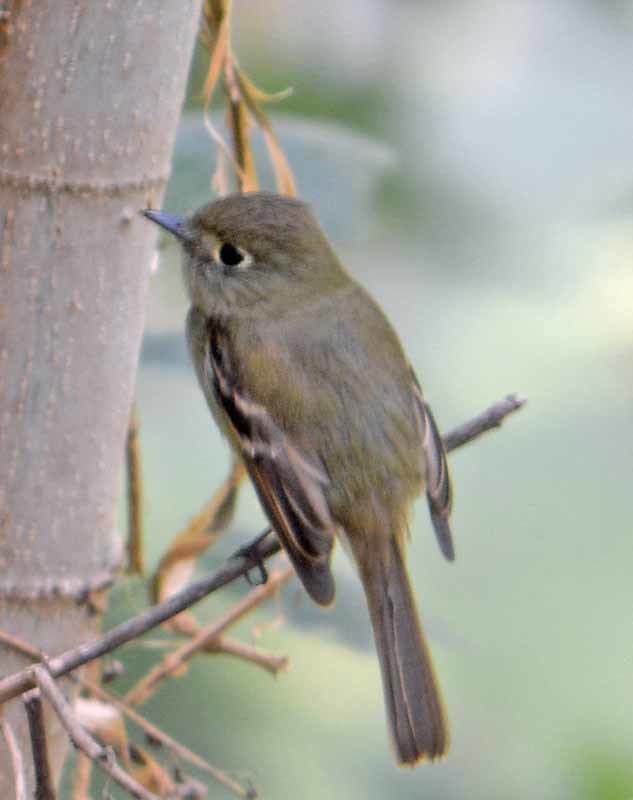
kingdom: Animalia
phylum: Chordata
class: Aves
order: Passeriformes
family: Regulidae
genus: Regulus
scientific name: Regulus calendula
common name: Ruby-crowned kinglet
